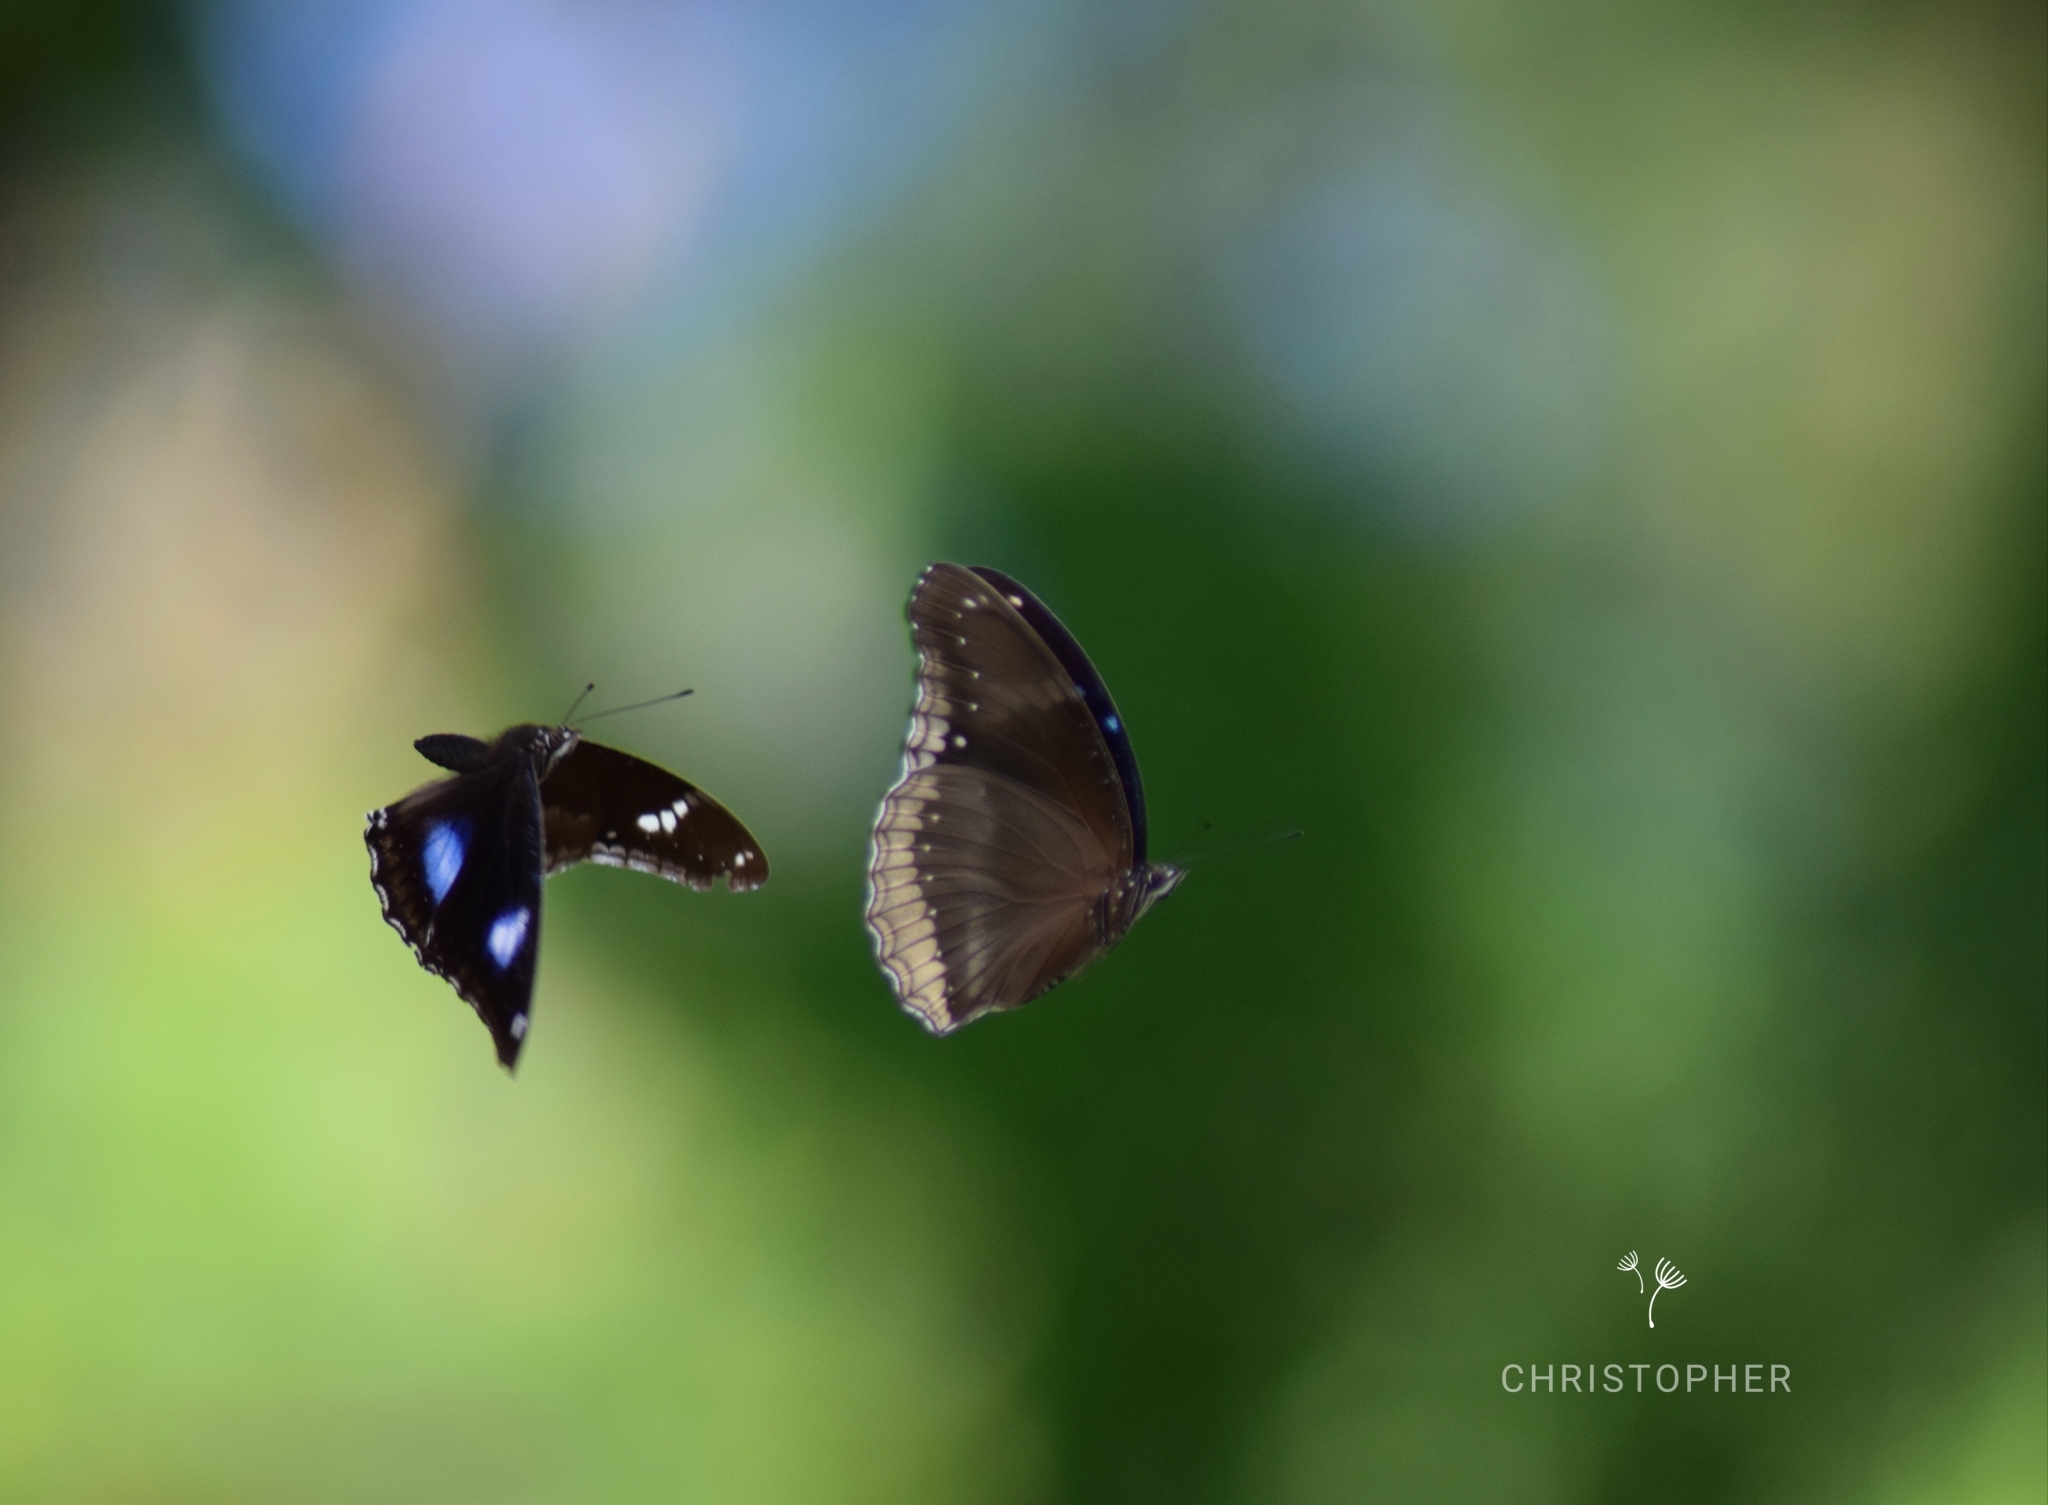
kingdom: Animalia
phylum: Arthropoda
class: Insecta
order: Lepidoptera
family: Nymphalidae
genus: Hypolimnas
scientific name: Hypolimnas bolina
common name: Great eggfly
